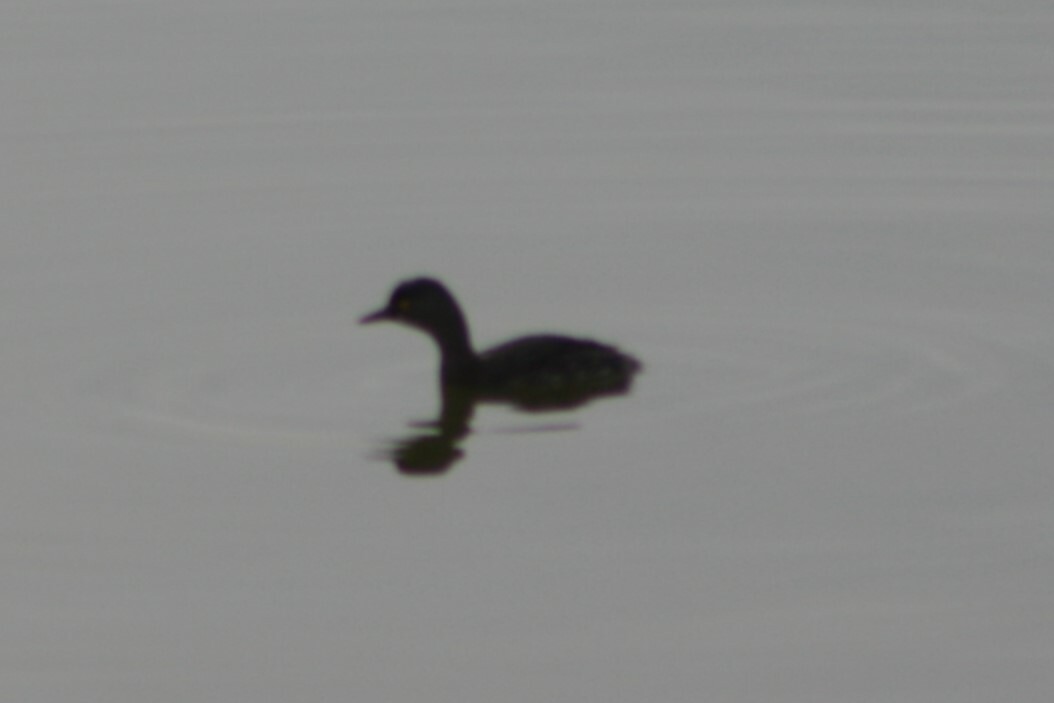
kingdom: Animalia
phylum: Chordata
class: Aves
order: Podicipediformes
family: Podicipedidae
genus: Tachybaptus
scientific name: Tachybaptus dominicus
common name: Least grebe
